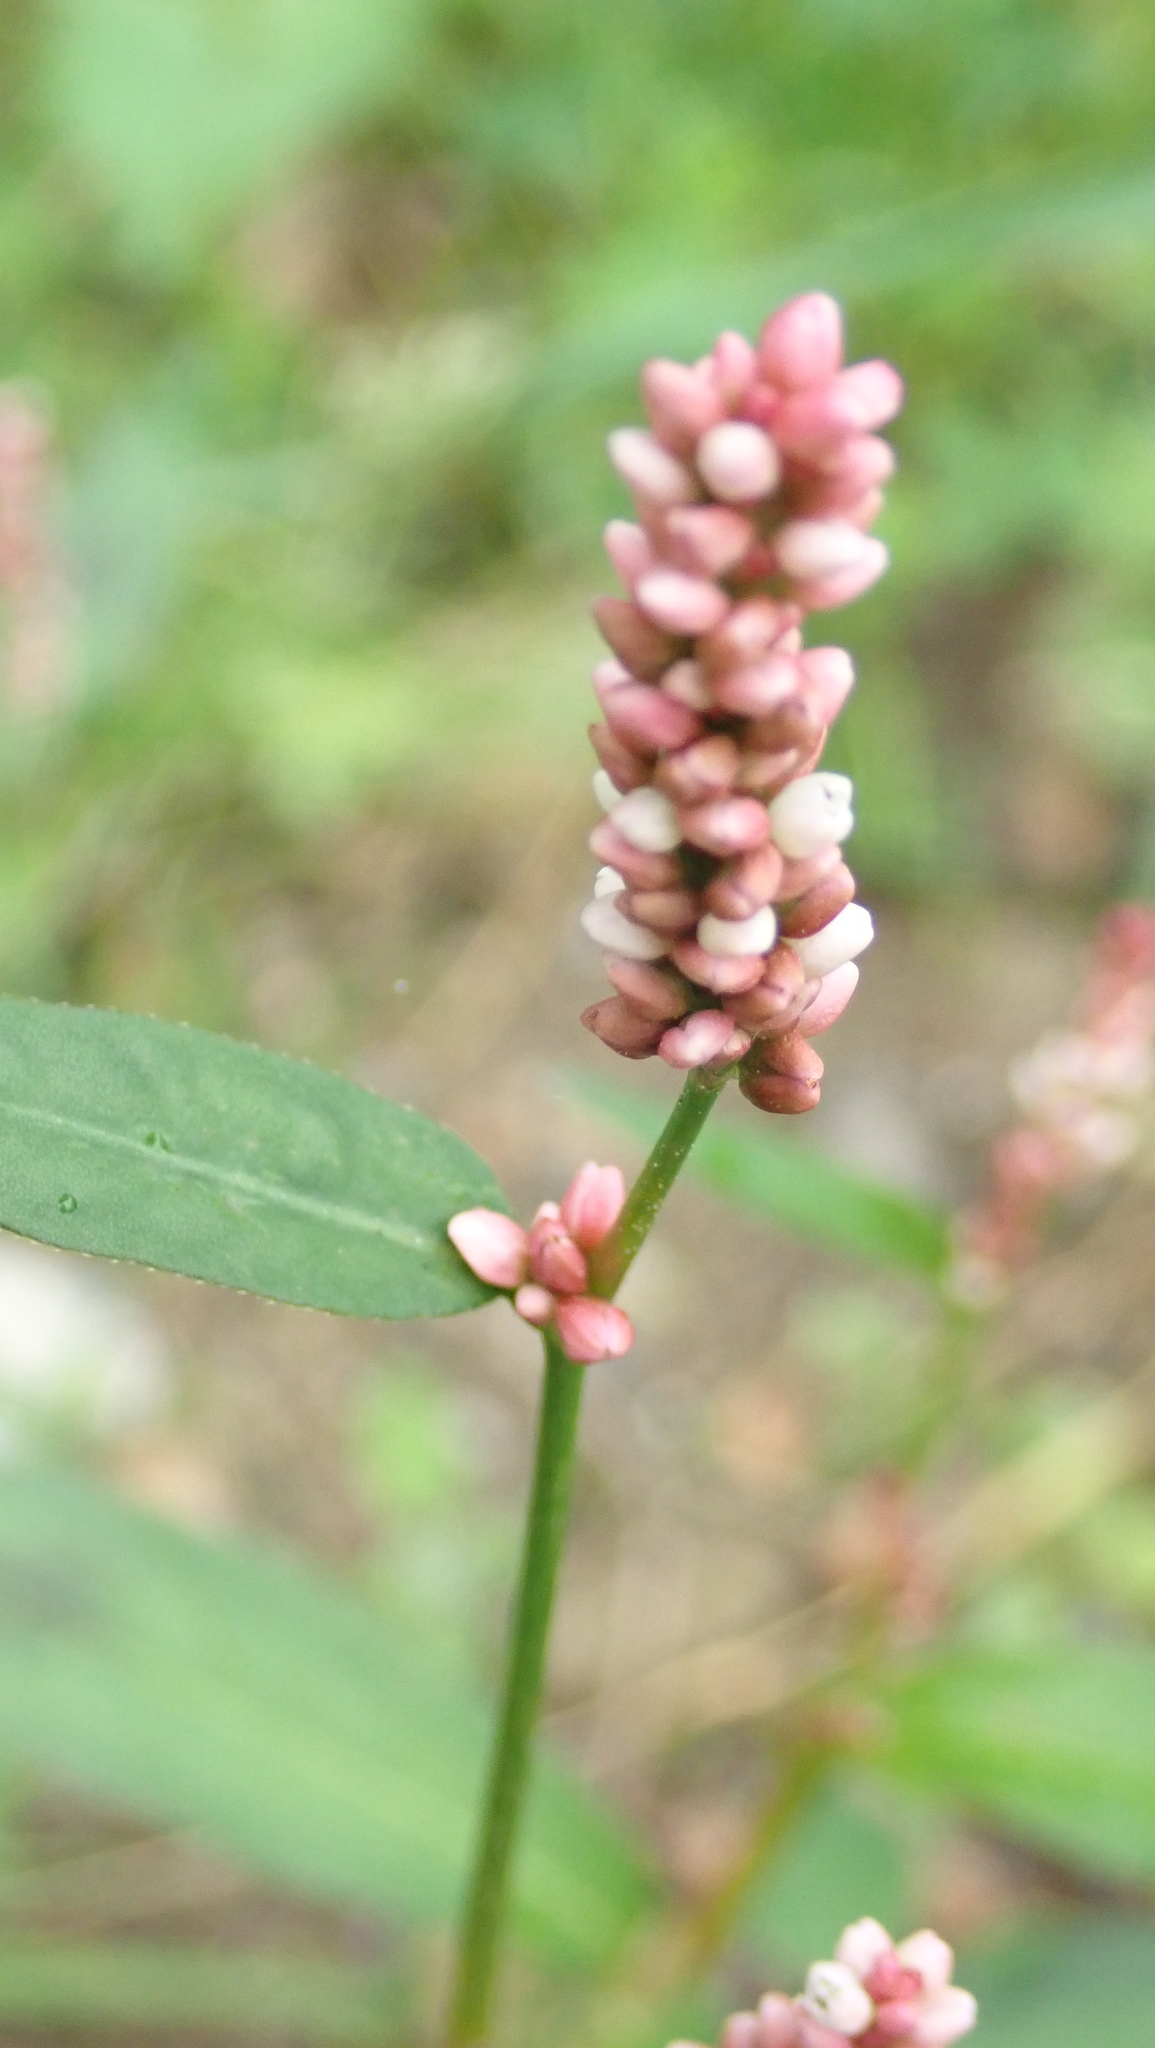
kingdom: Plantae
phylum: Tracheophyta
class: Magnoliopsida
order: Caryophyllales
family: Polygonaceae
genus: Persicaria
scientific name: Persicaria maculosa
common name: Redshank
